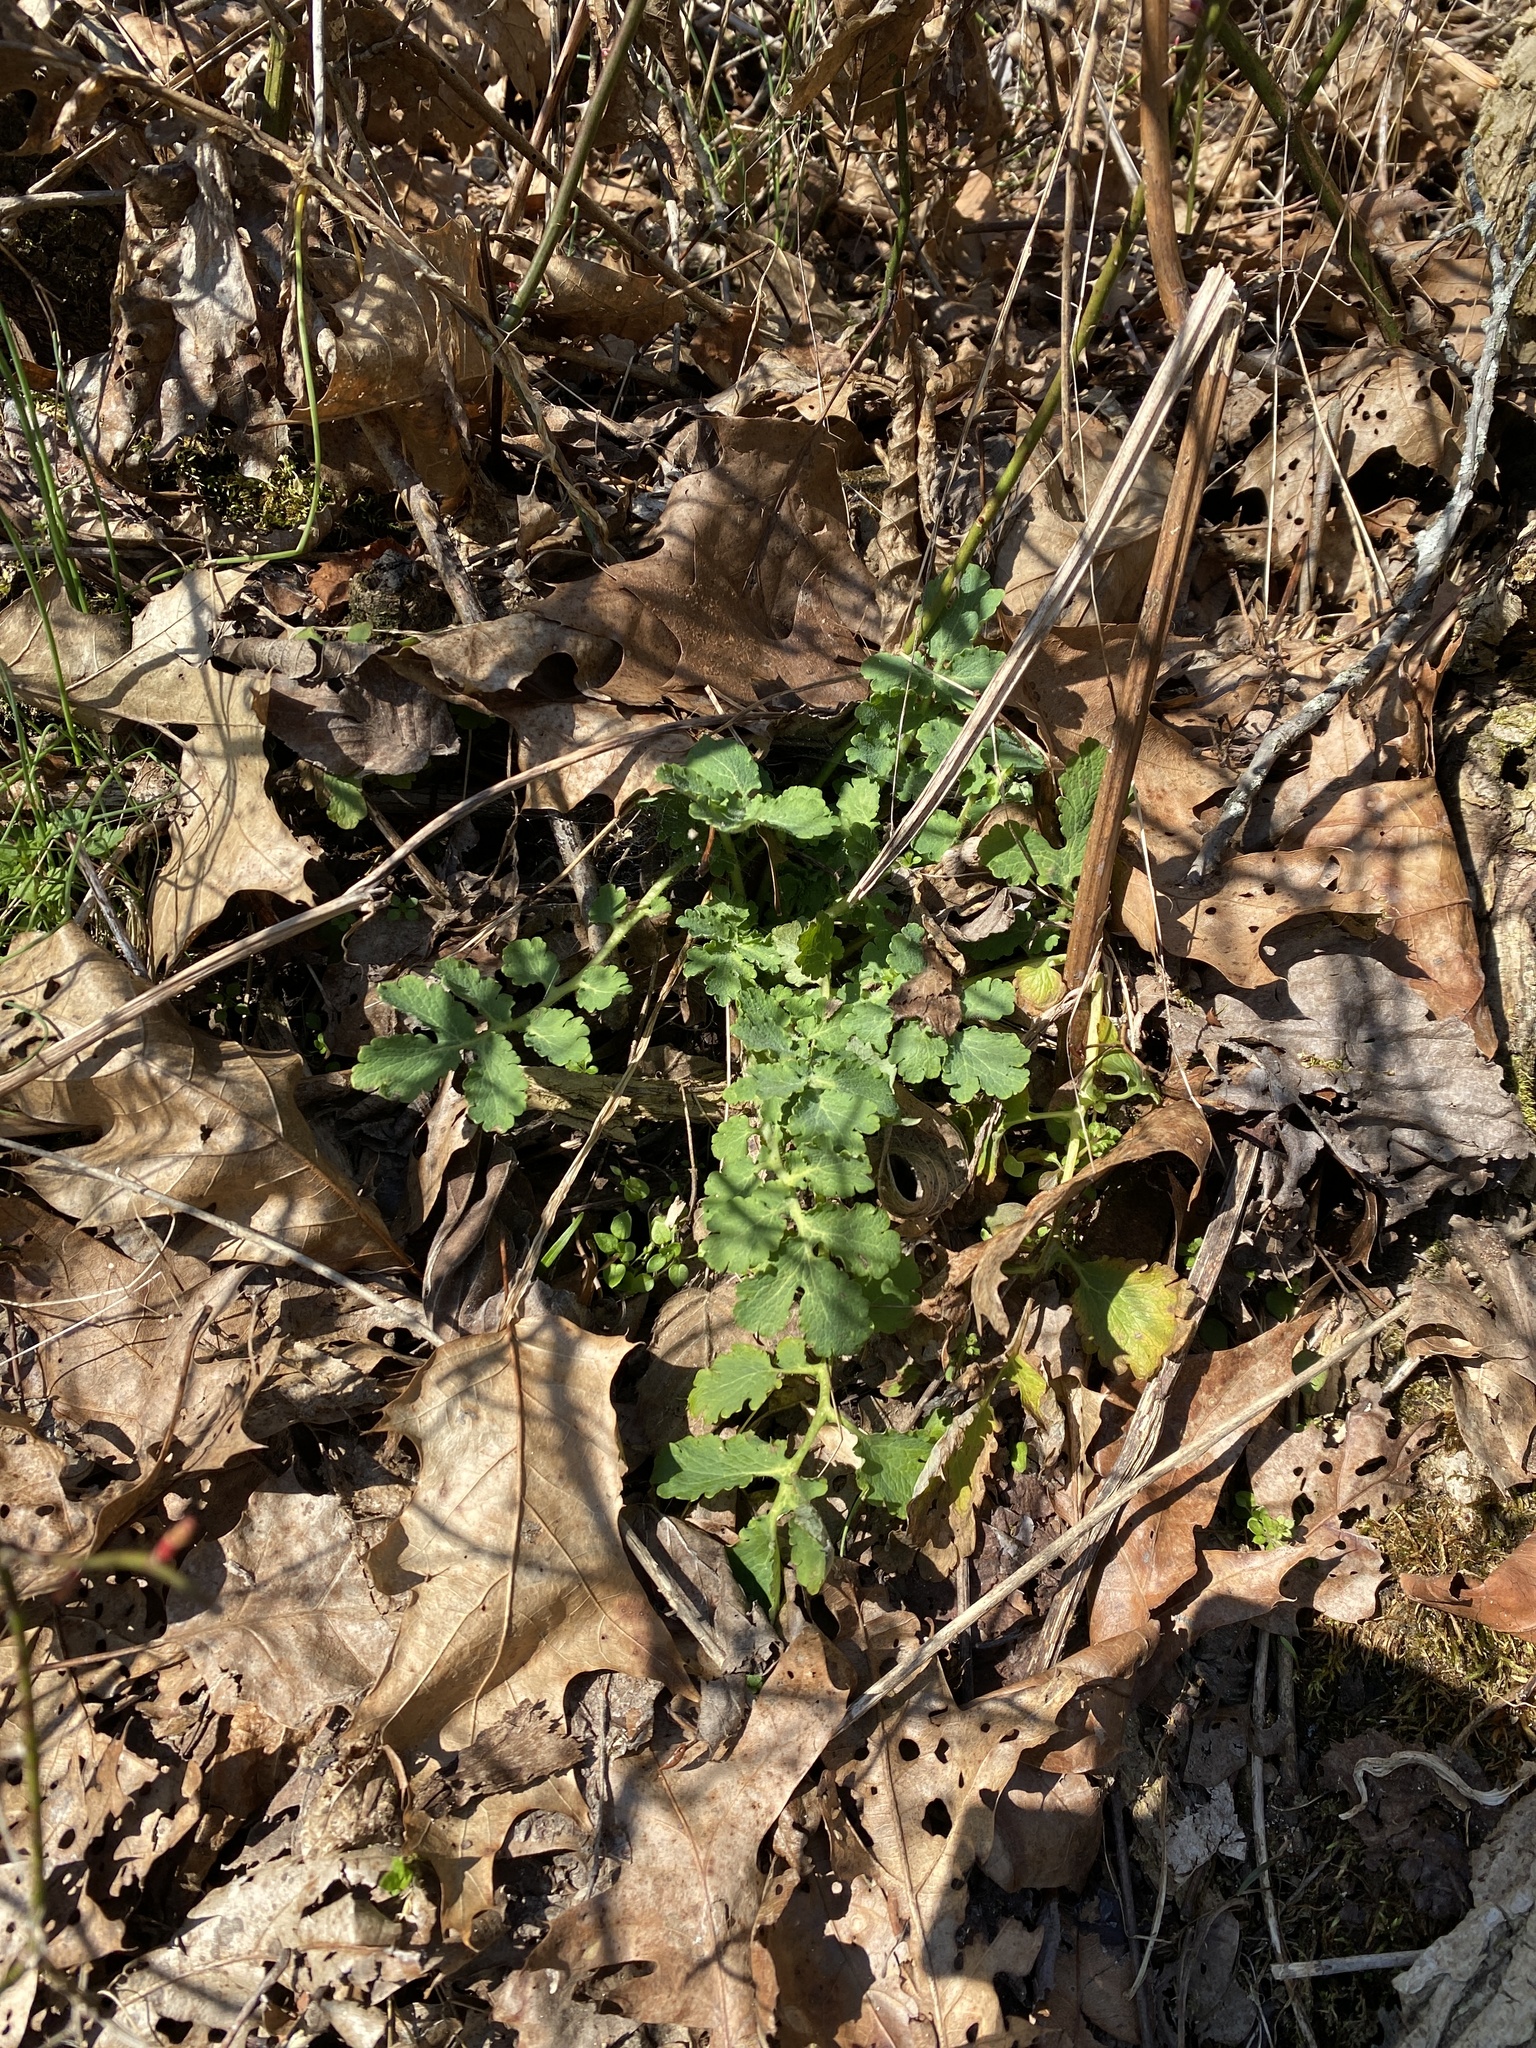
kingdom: Plantae
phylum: Tracheophyta
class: Magnoliopsida
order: Ranunculales
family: Papaveraceae
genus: Chelidonium
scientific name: Chelidonium majus
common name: Greater celandine
